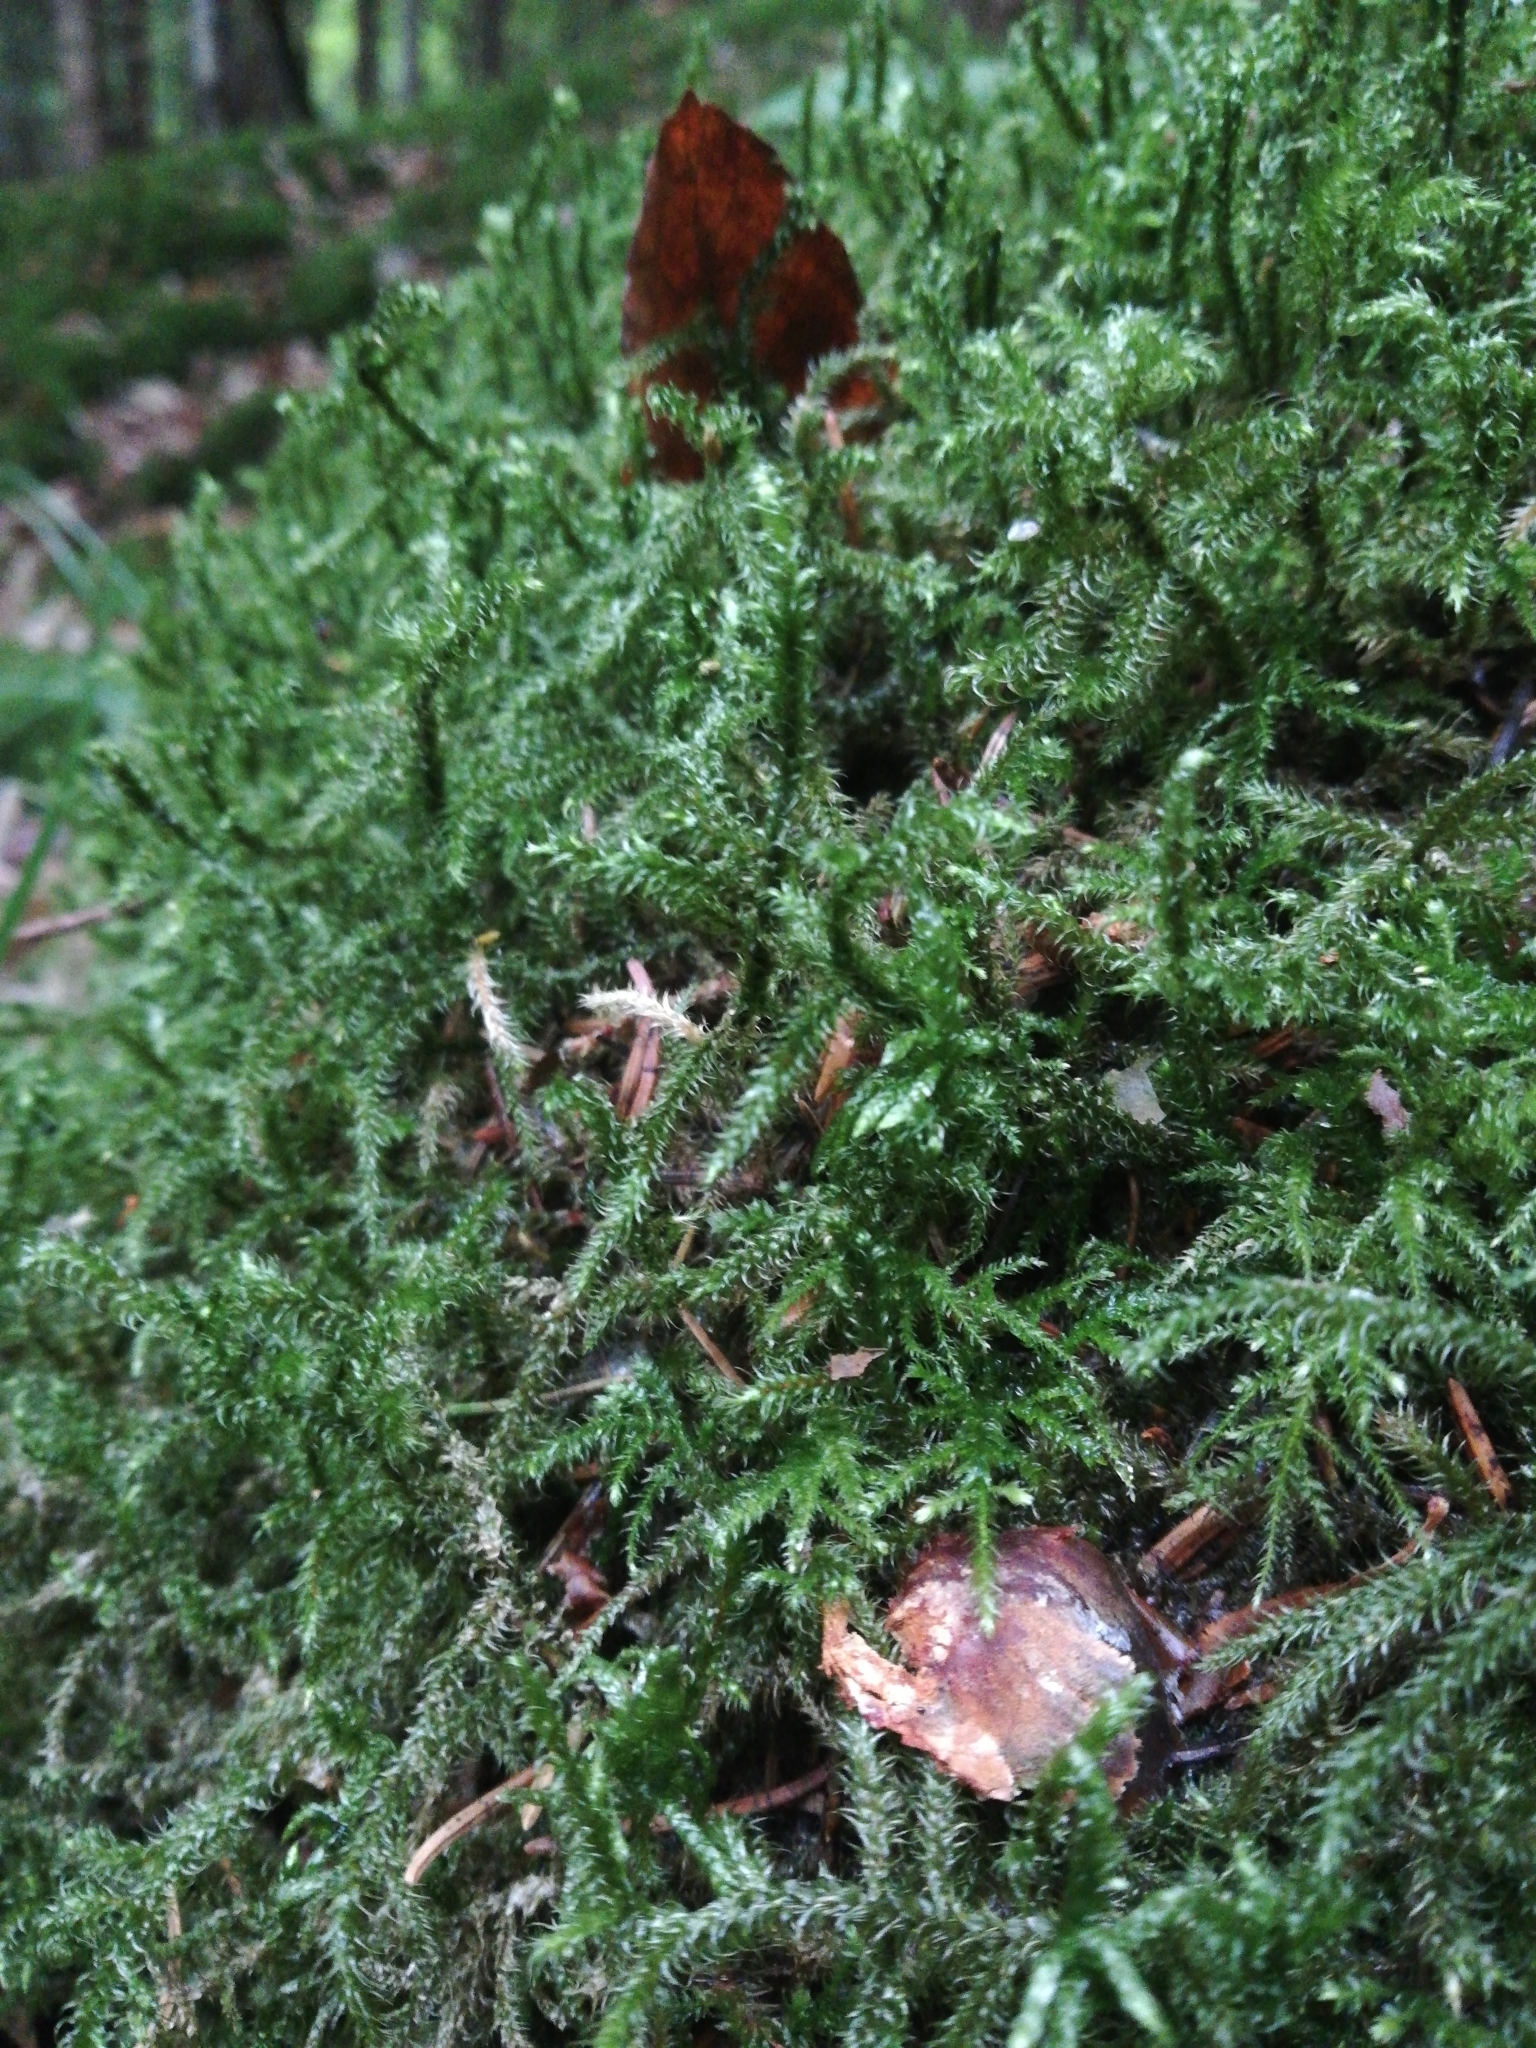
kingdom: Plantae
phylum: Bryophyta
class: Bryopsida
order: Hypnales
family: Hylocomiaceae
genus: Rhytidiadelphus
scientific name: Rhytidiadelphus loreus
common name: Lanky moss
